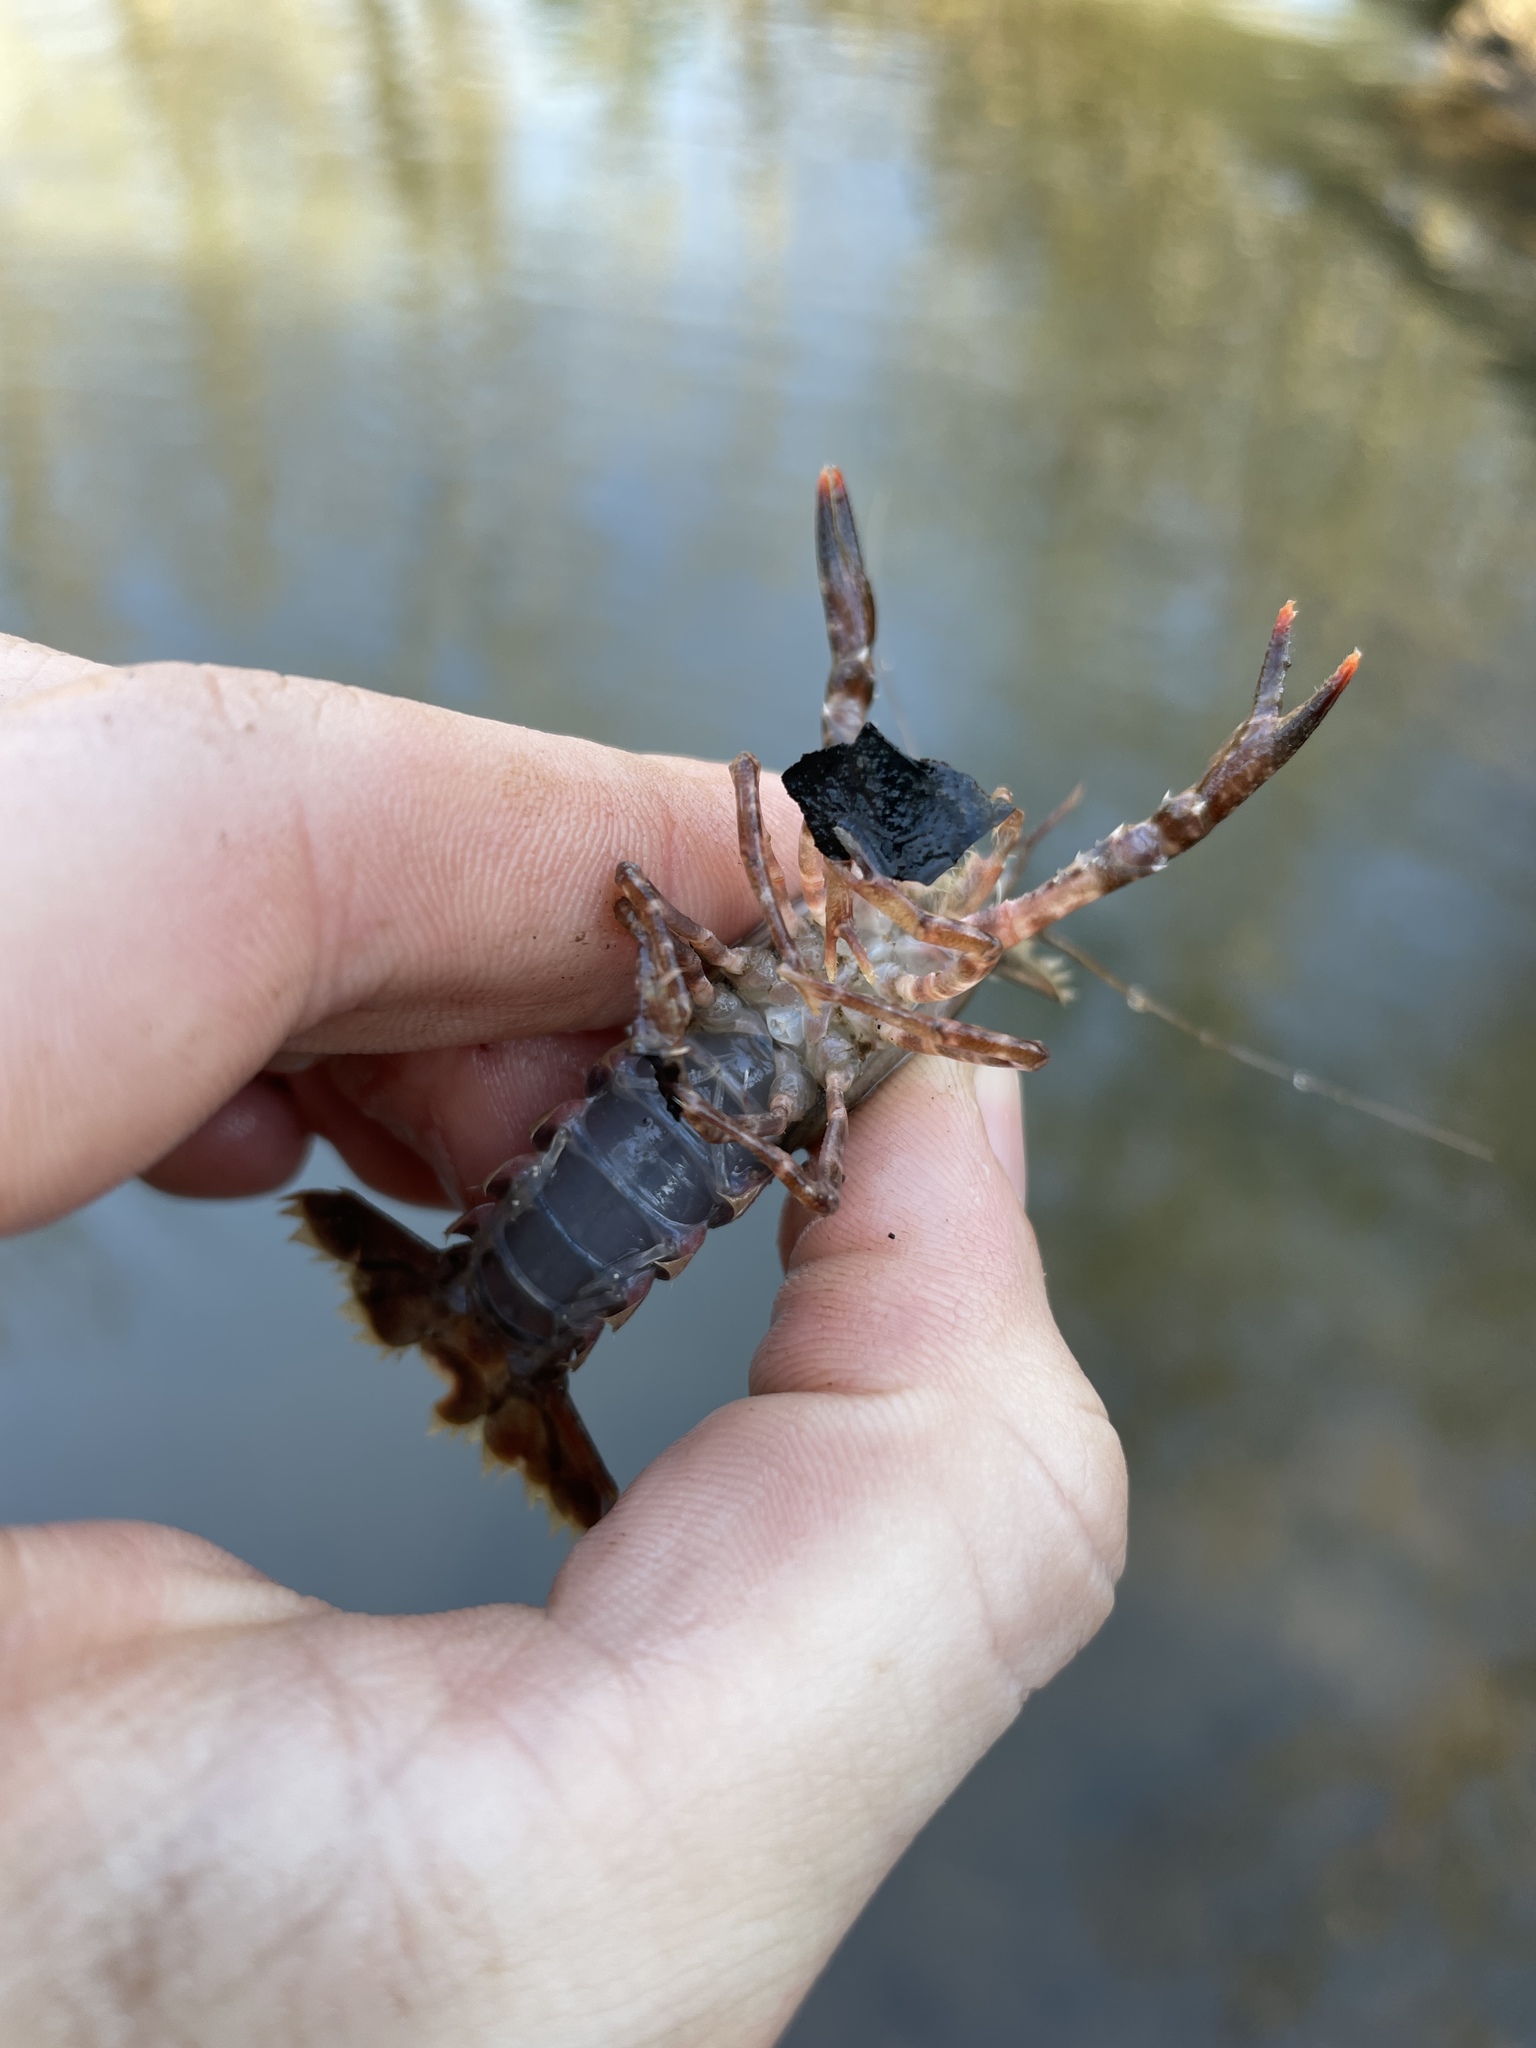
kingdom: Animalia
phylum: Arthropoda
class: Malacostraca
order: Decapoda
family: Cambaridae
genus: Procambarus
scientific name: Procambarus spiculifer
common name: White tubercled crayfish
